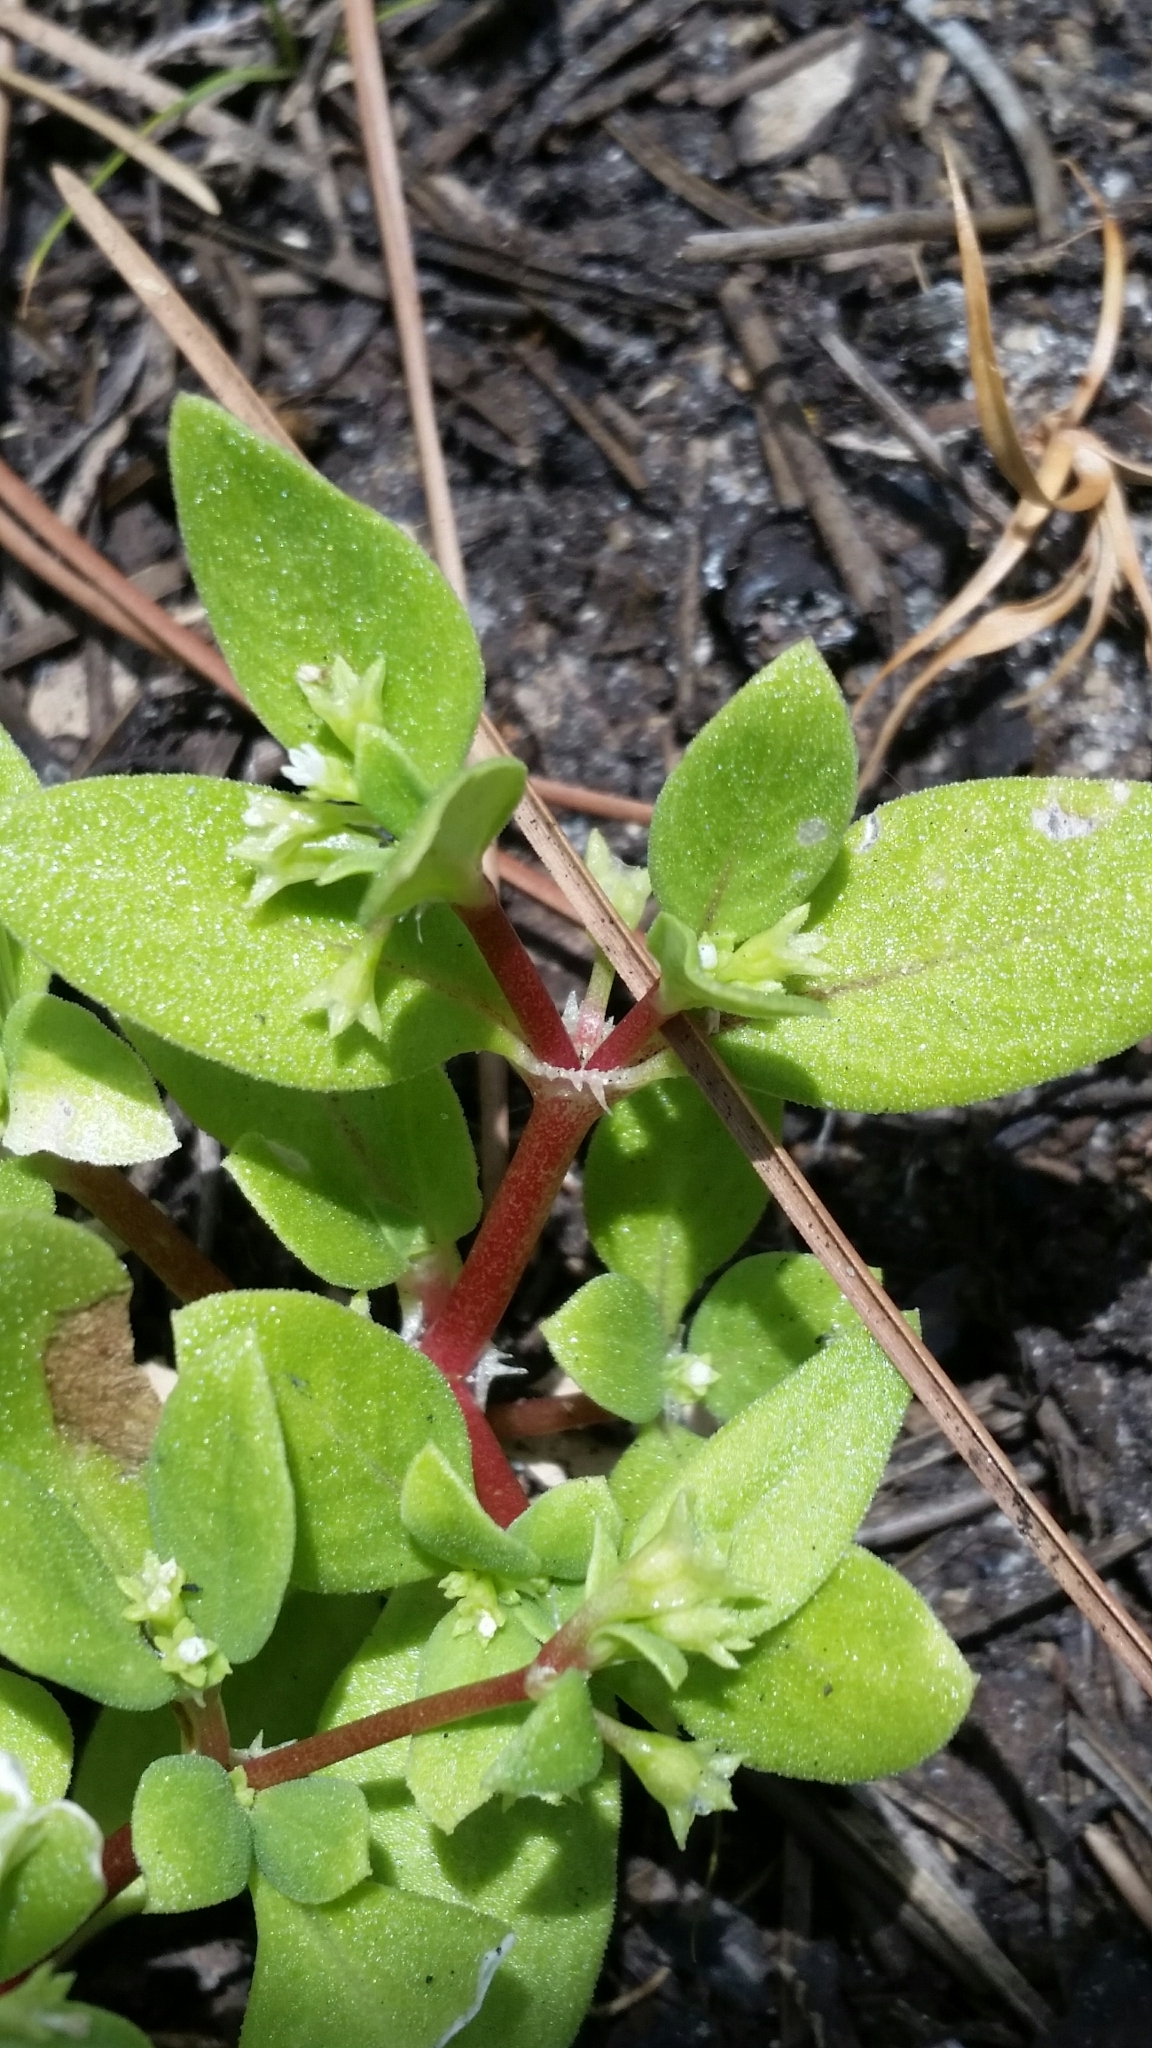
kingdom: Plantae
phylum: Tracheophyta
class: Magnoliopsida
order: Gentianales
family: Rubiaceae
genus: Pentodon
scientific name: Pentodon pentandrus
